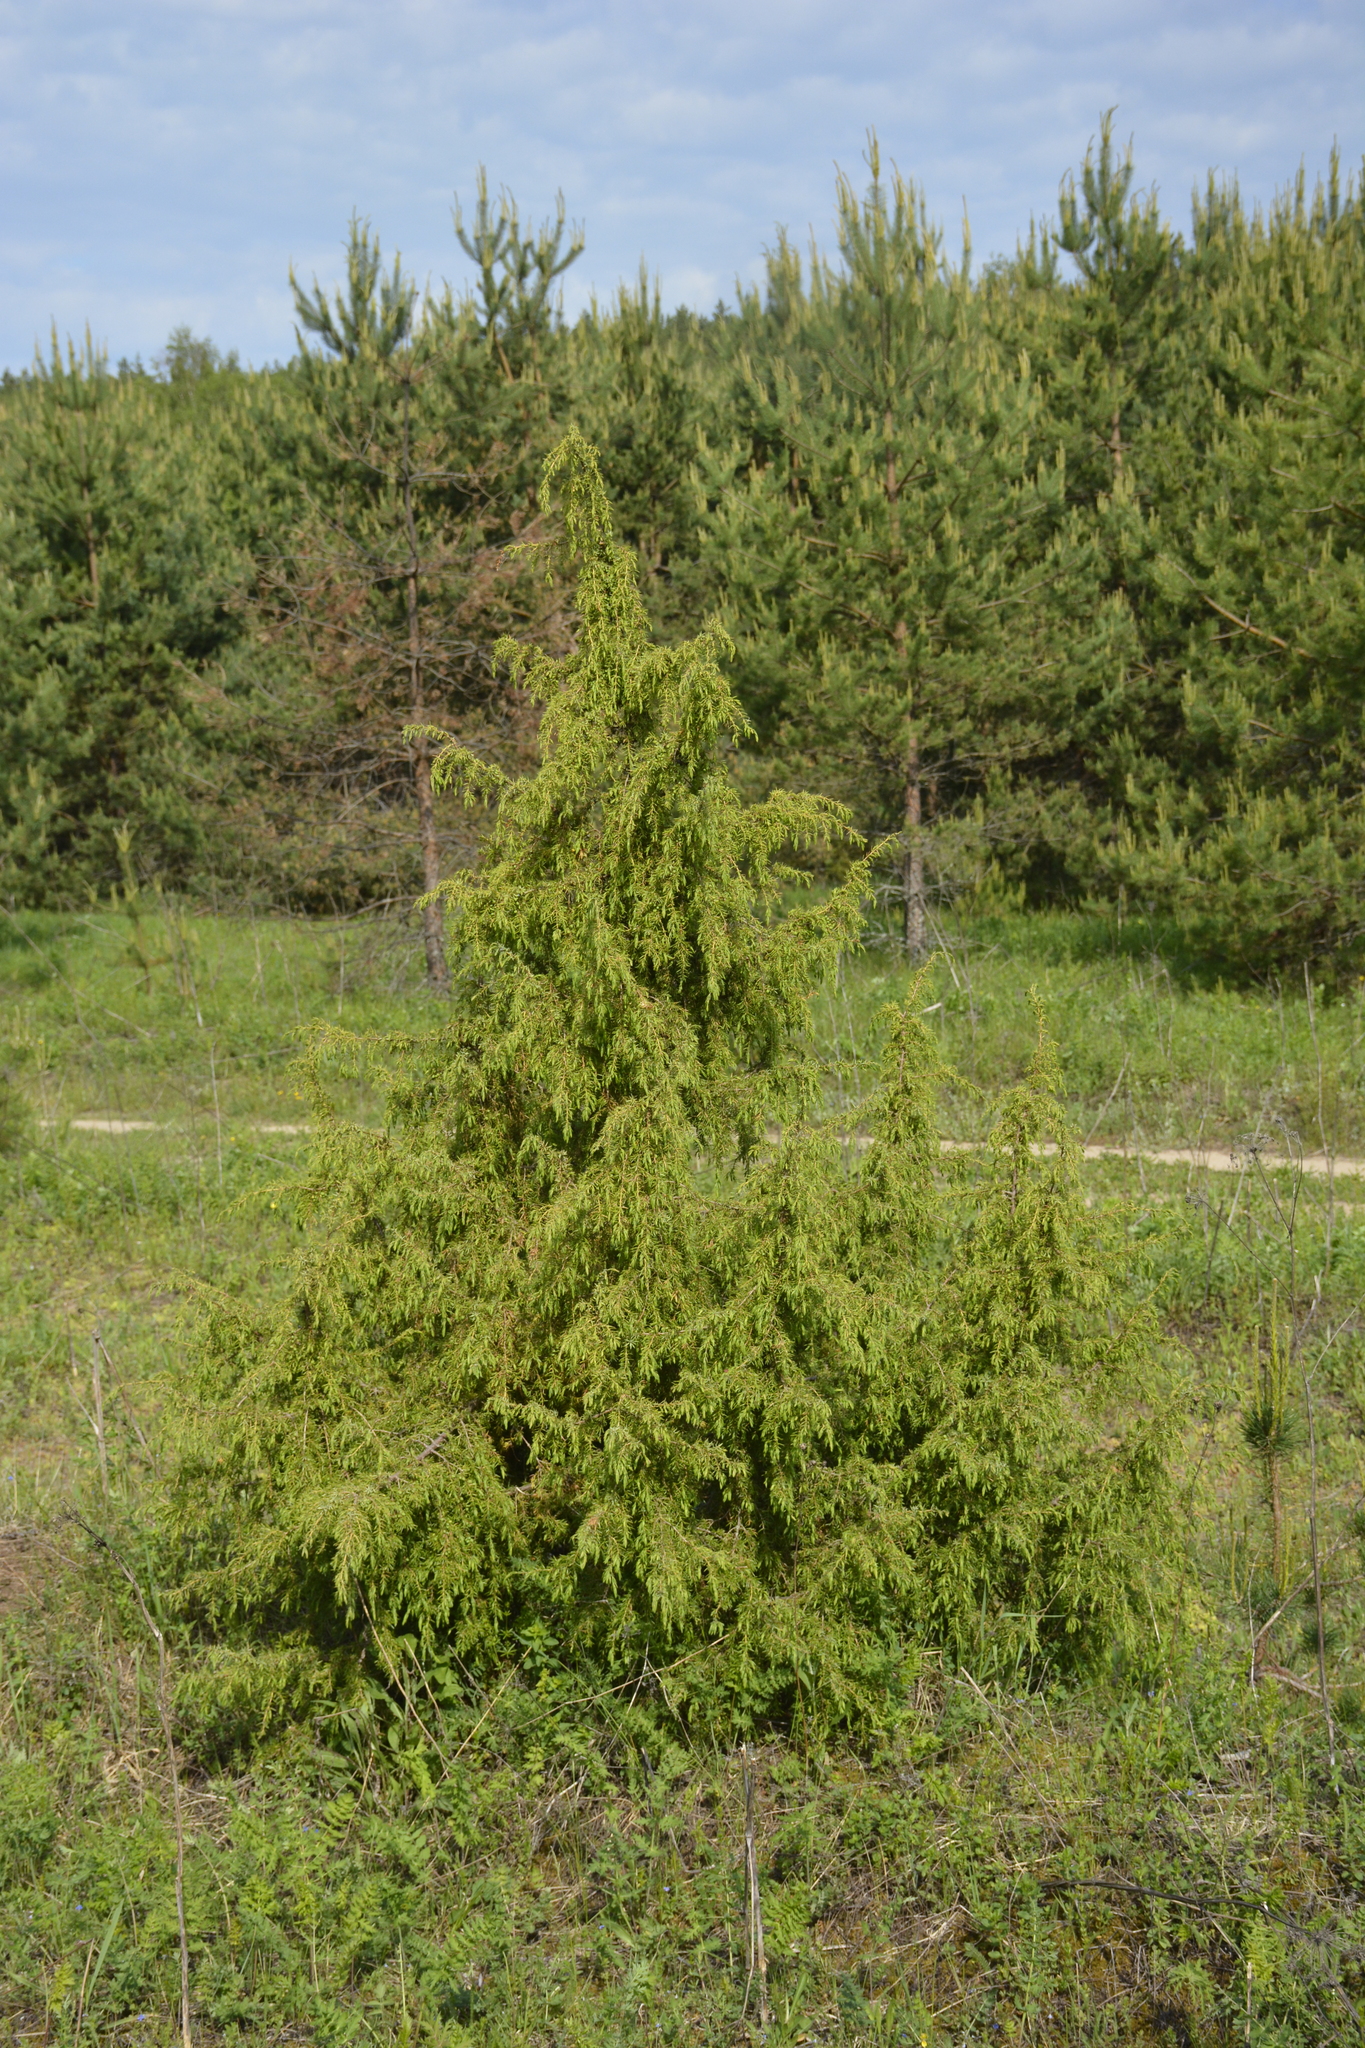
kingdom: Plantae
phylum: Tracheophyta
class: Pinopsida
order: Pinales
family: Cupressaceae
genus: Juniperus
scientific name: Juniperus communis
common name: Common juniper
